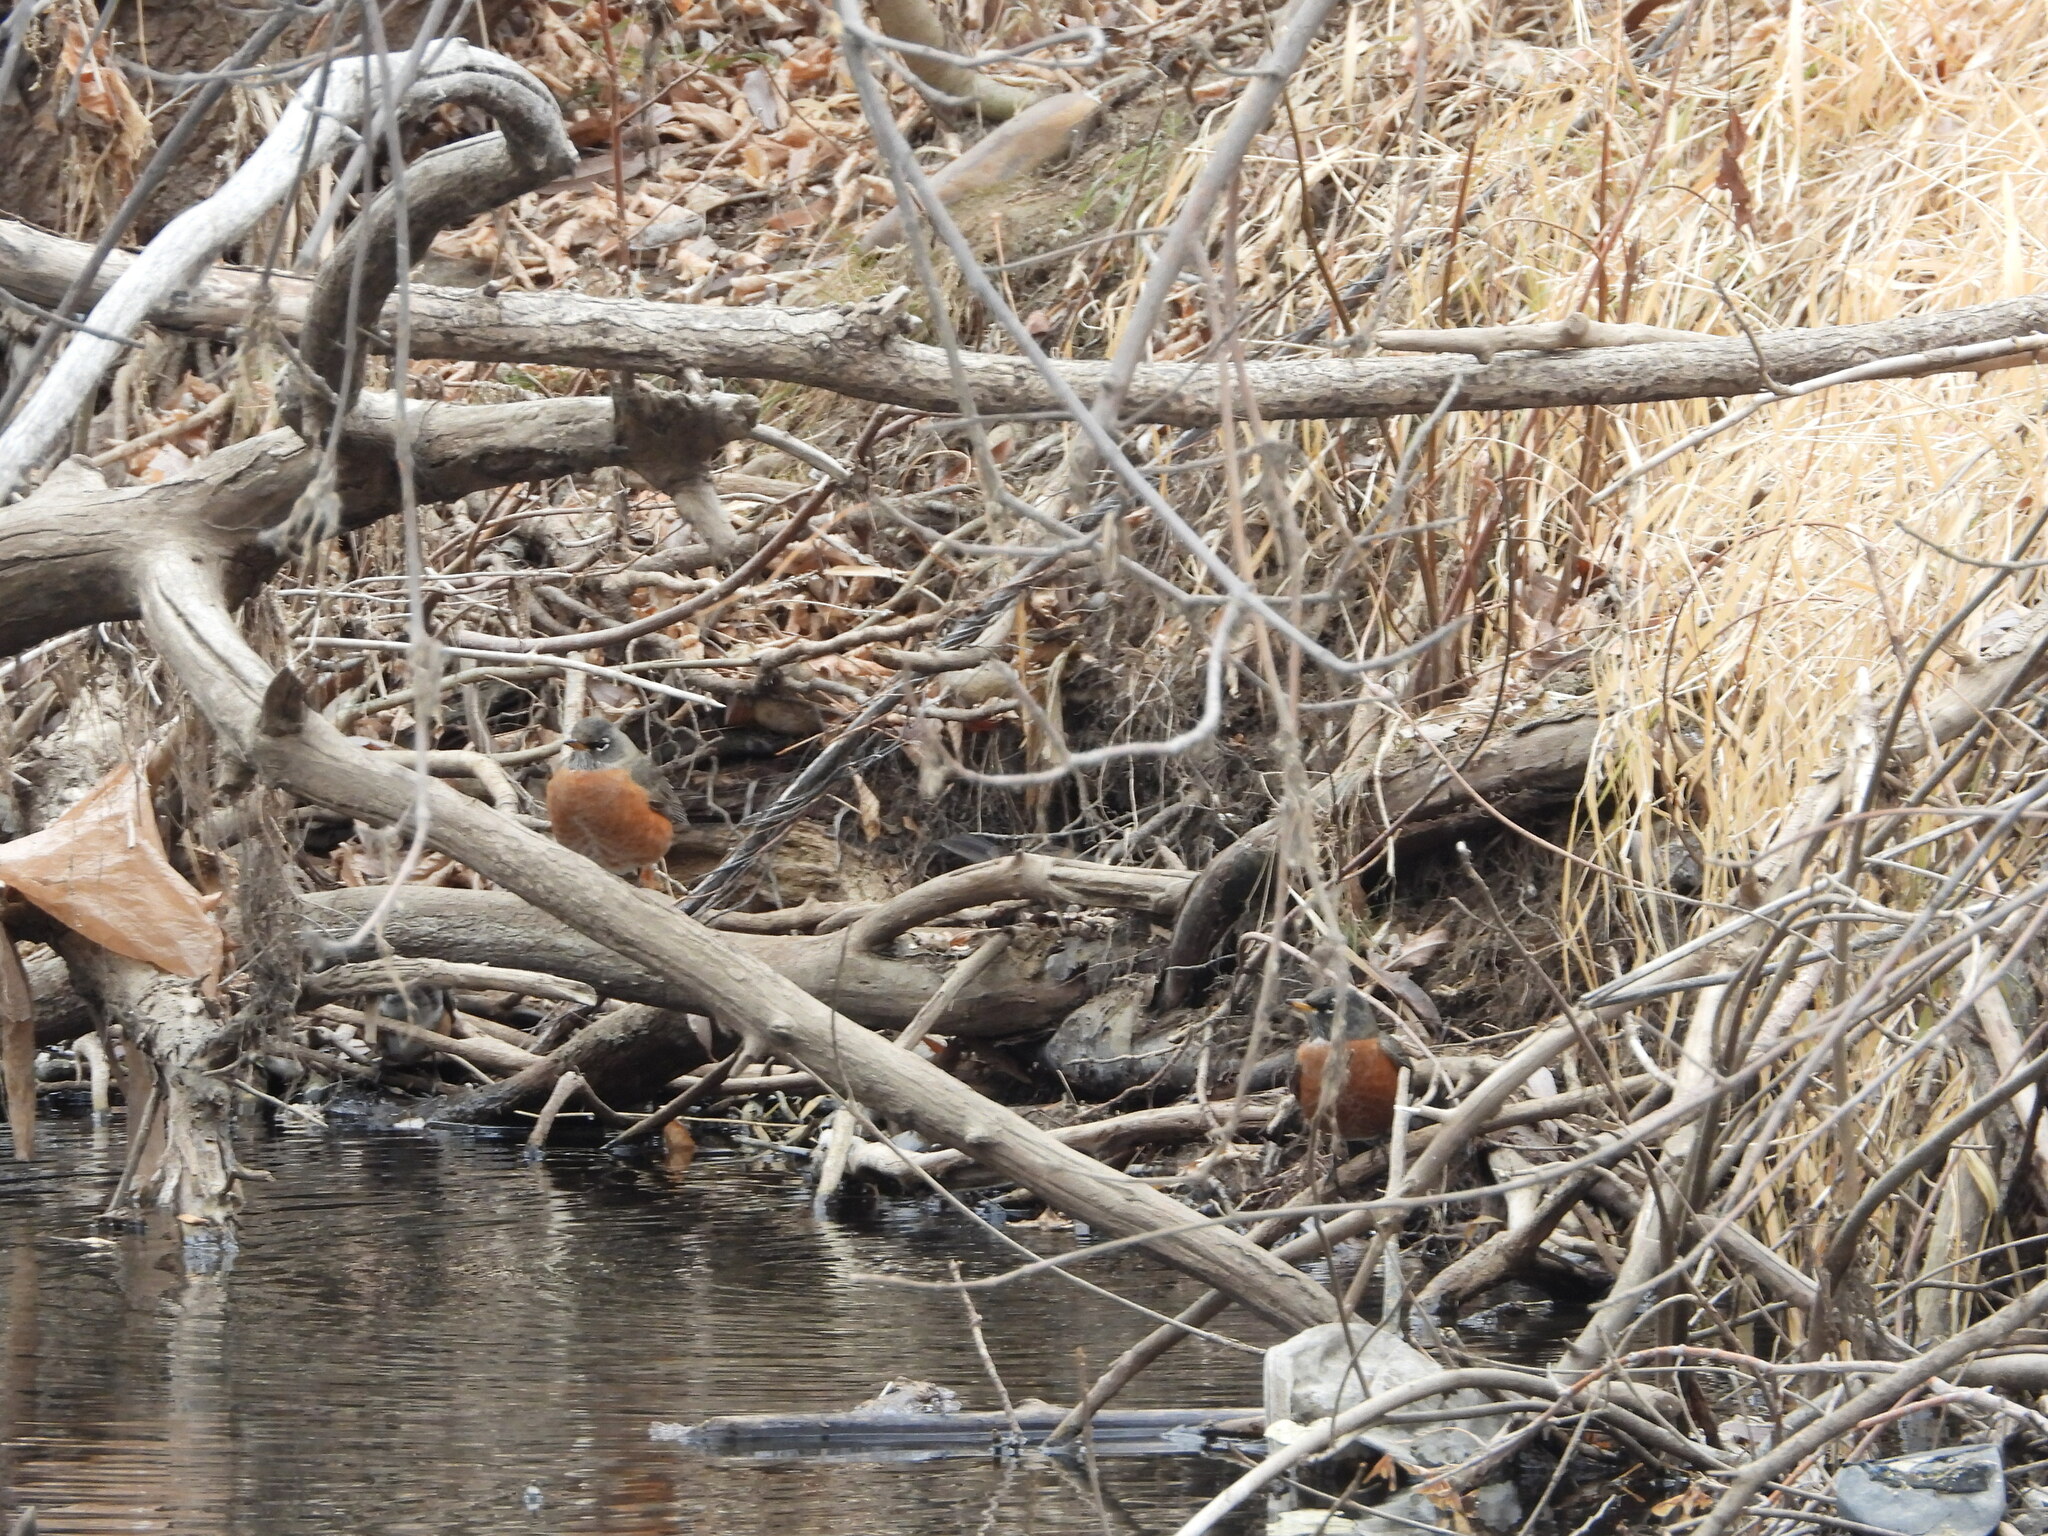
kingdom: Animalia
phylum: Chordata
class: Aves
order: Passeriformes
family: Turdidae
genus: Turdus
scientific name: Turdus migratorius
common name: American robin
